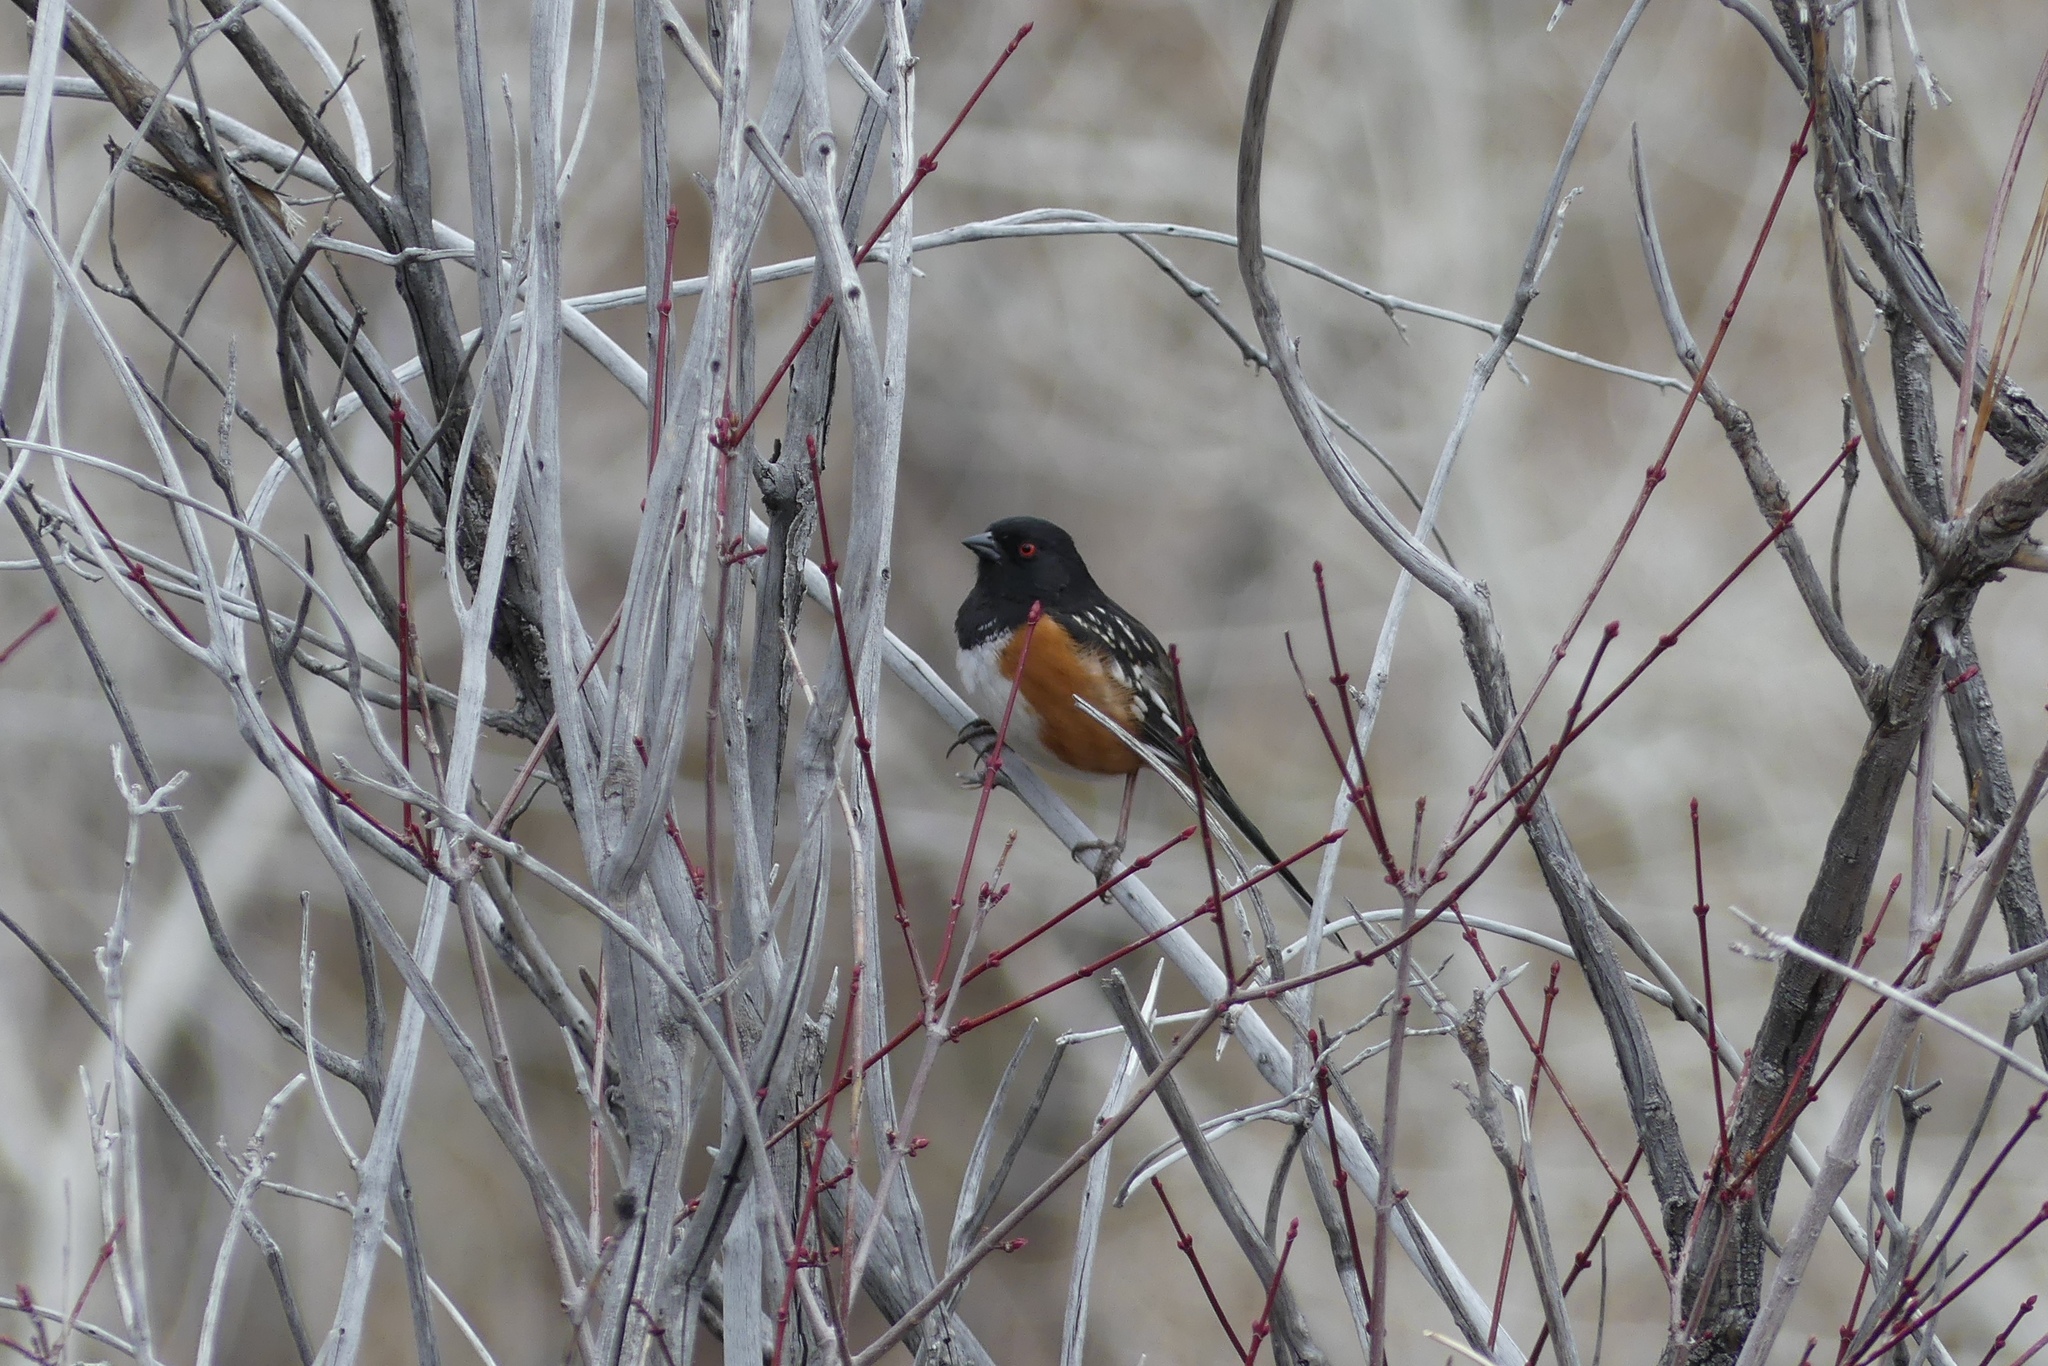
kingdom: Animalia
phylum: Chordata
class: Aves
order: Passeriformes
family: Passerellidae
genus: Pipilo
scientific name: Pipilo maculatus
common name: Spotted towhee
